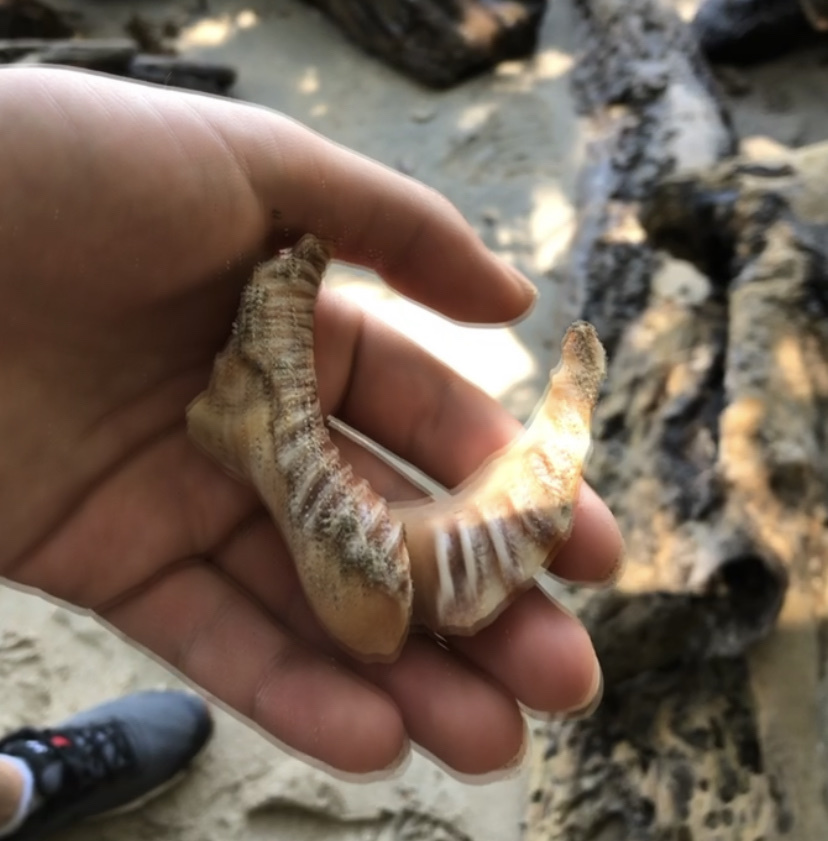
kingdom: Animalia
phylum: Mollusca
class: Gastropoda
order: Littorinimorpha
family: Charoniidae
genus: Charonia
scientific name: Charonia variegata
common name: Atlantic triton
